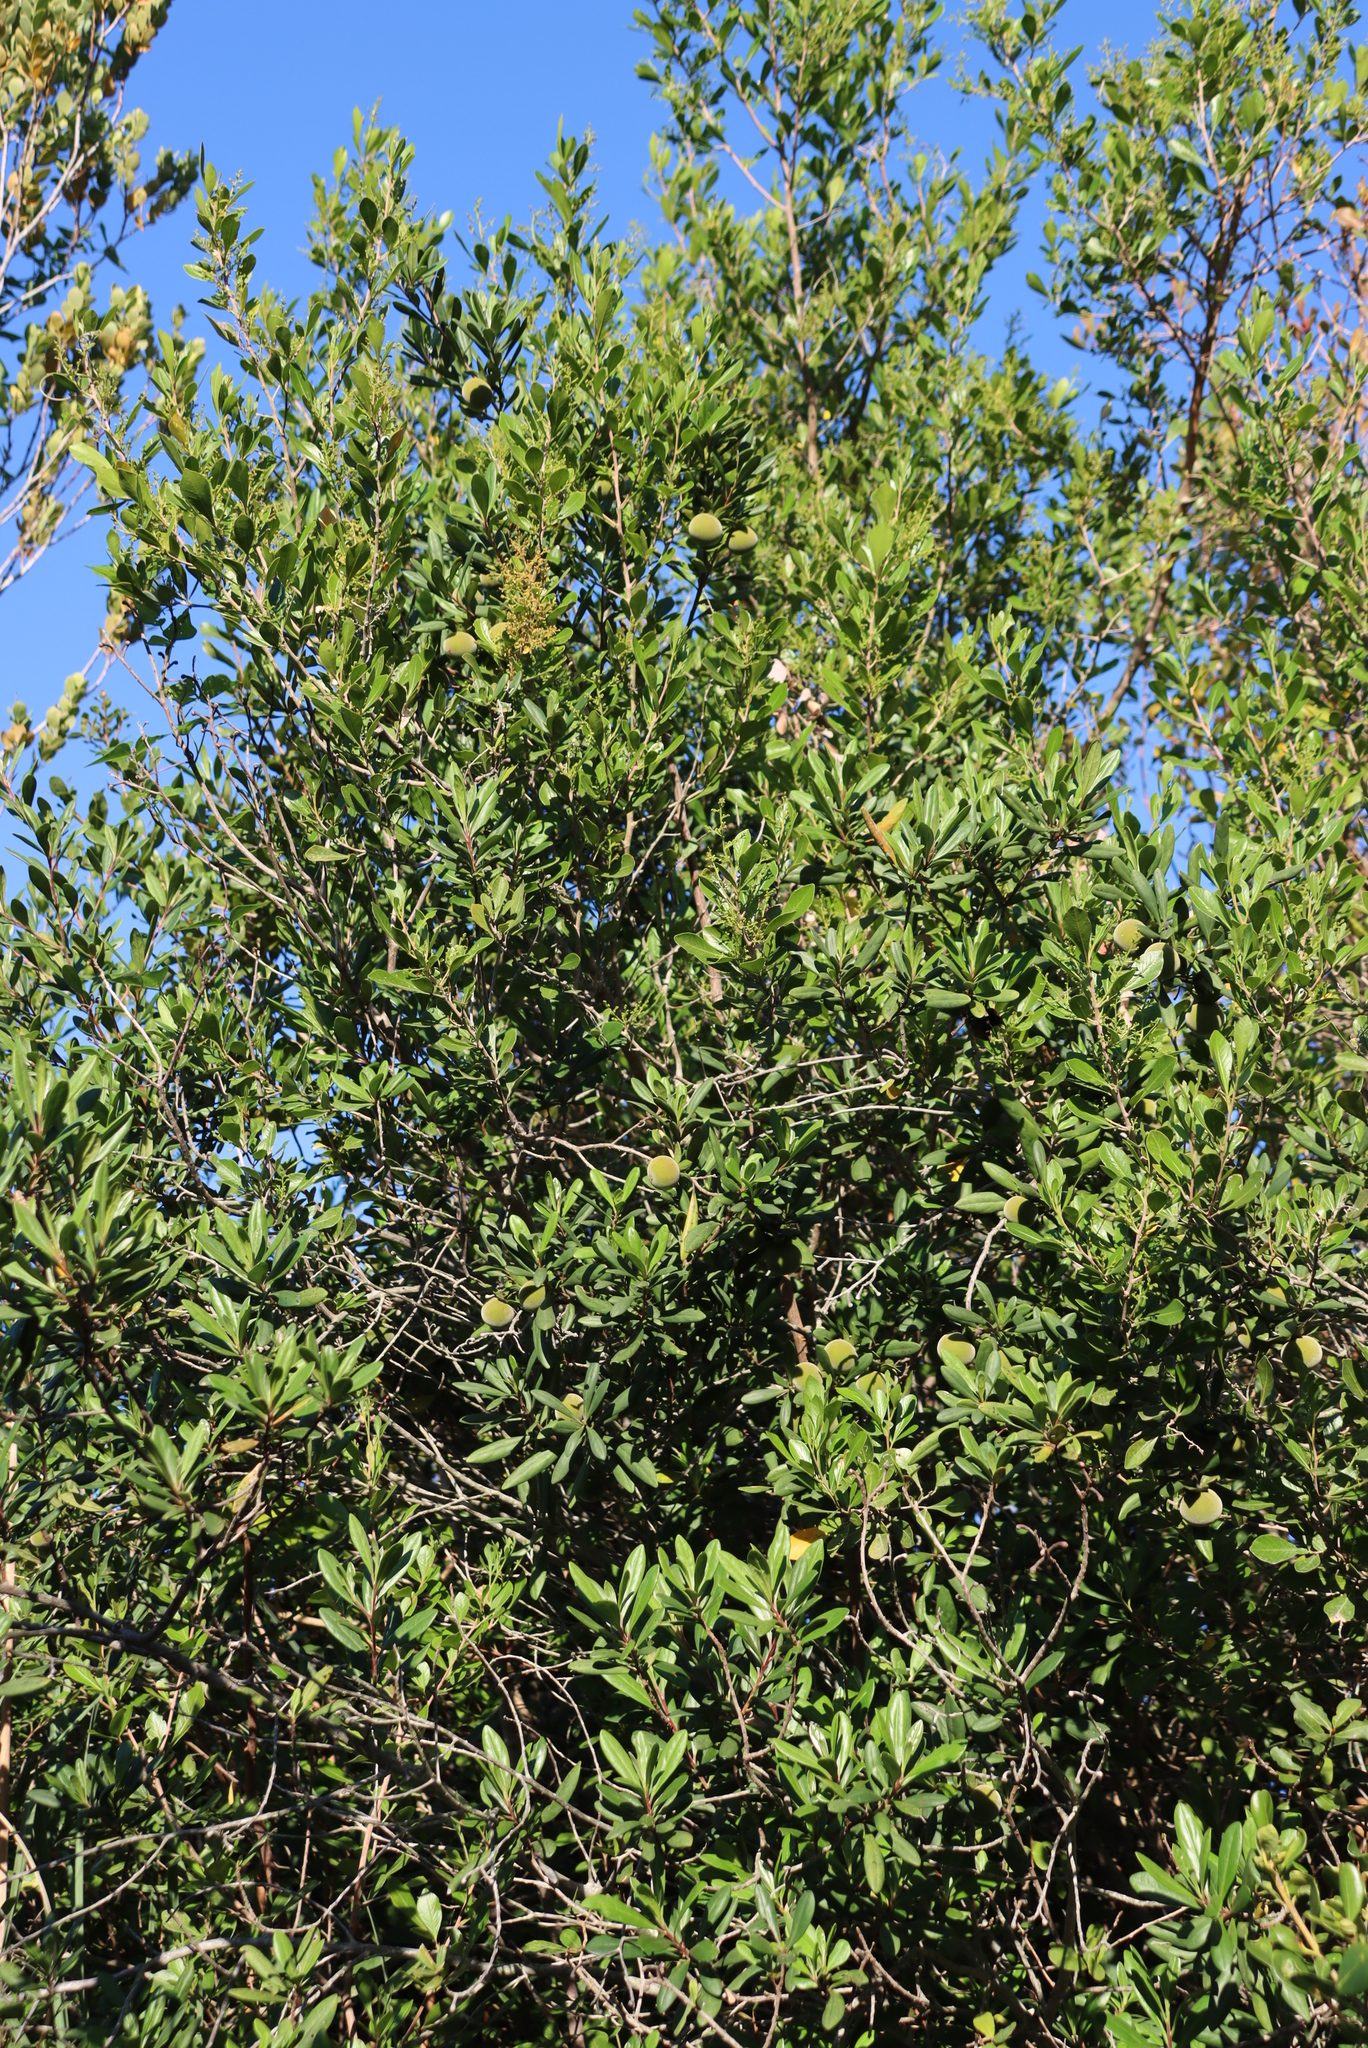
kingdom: Plantae
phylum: Tracheophyta
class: Magnoliopsida
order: Ericales
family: Ebenaceae
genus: Diospyros
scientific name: Diospyros dichrophylla
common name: Common star-apple
